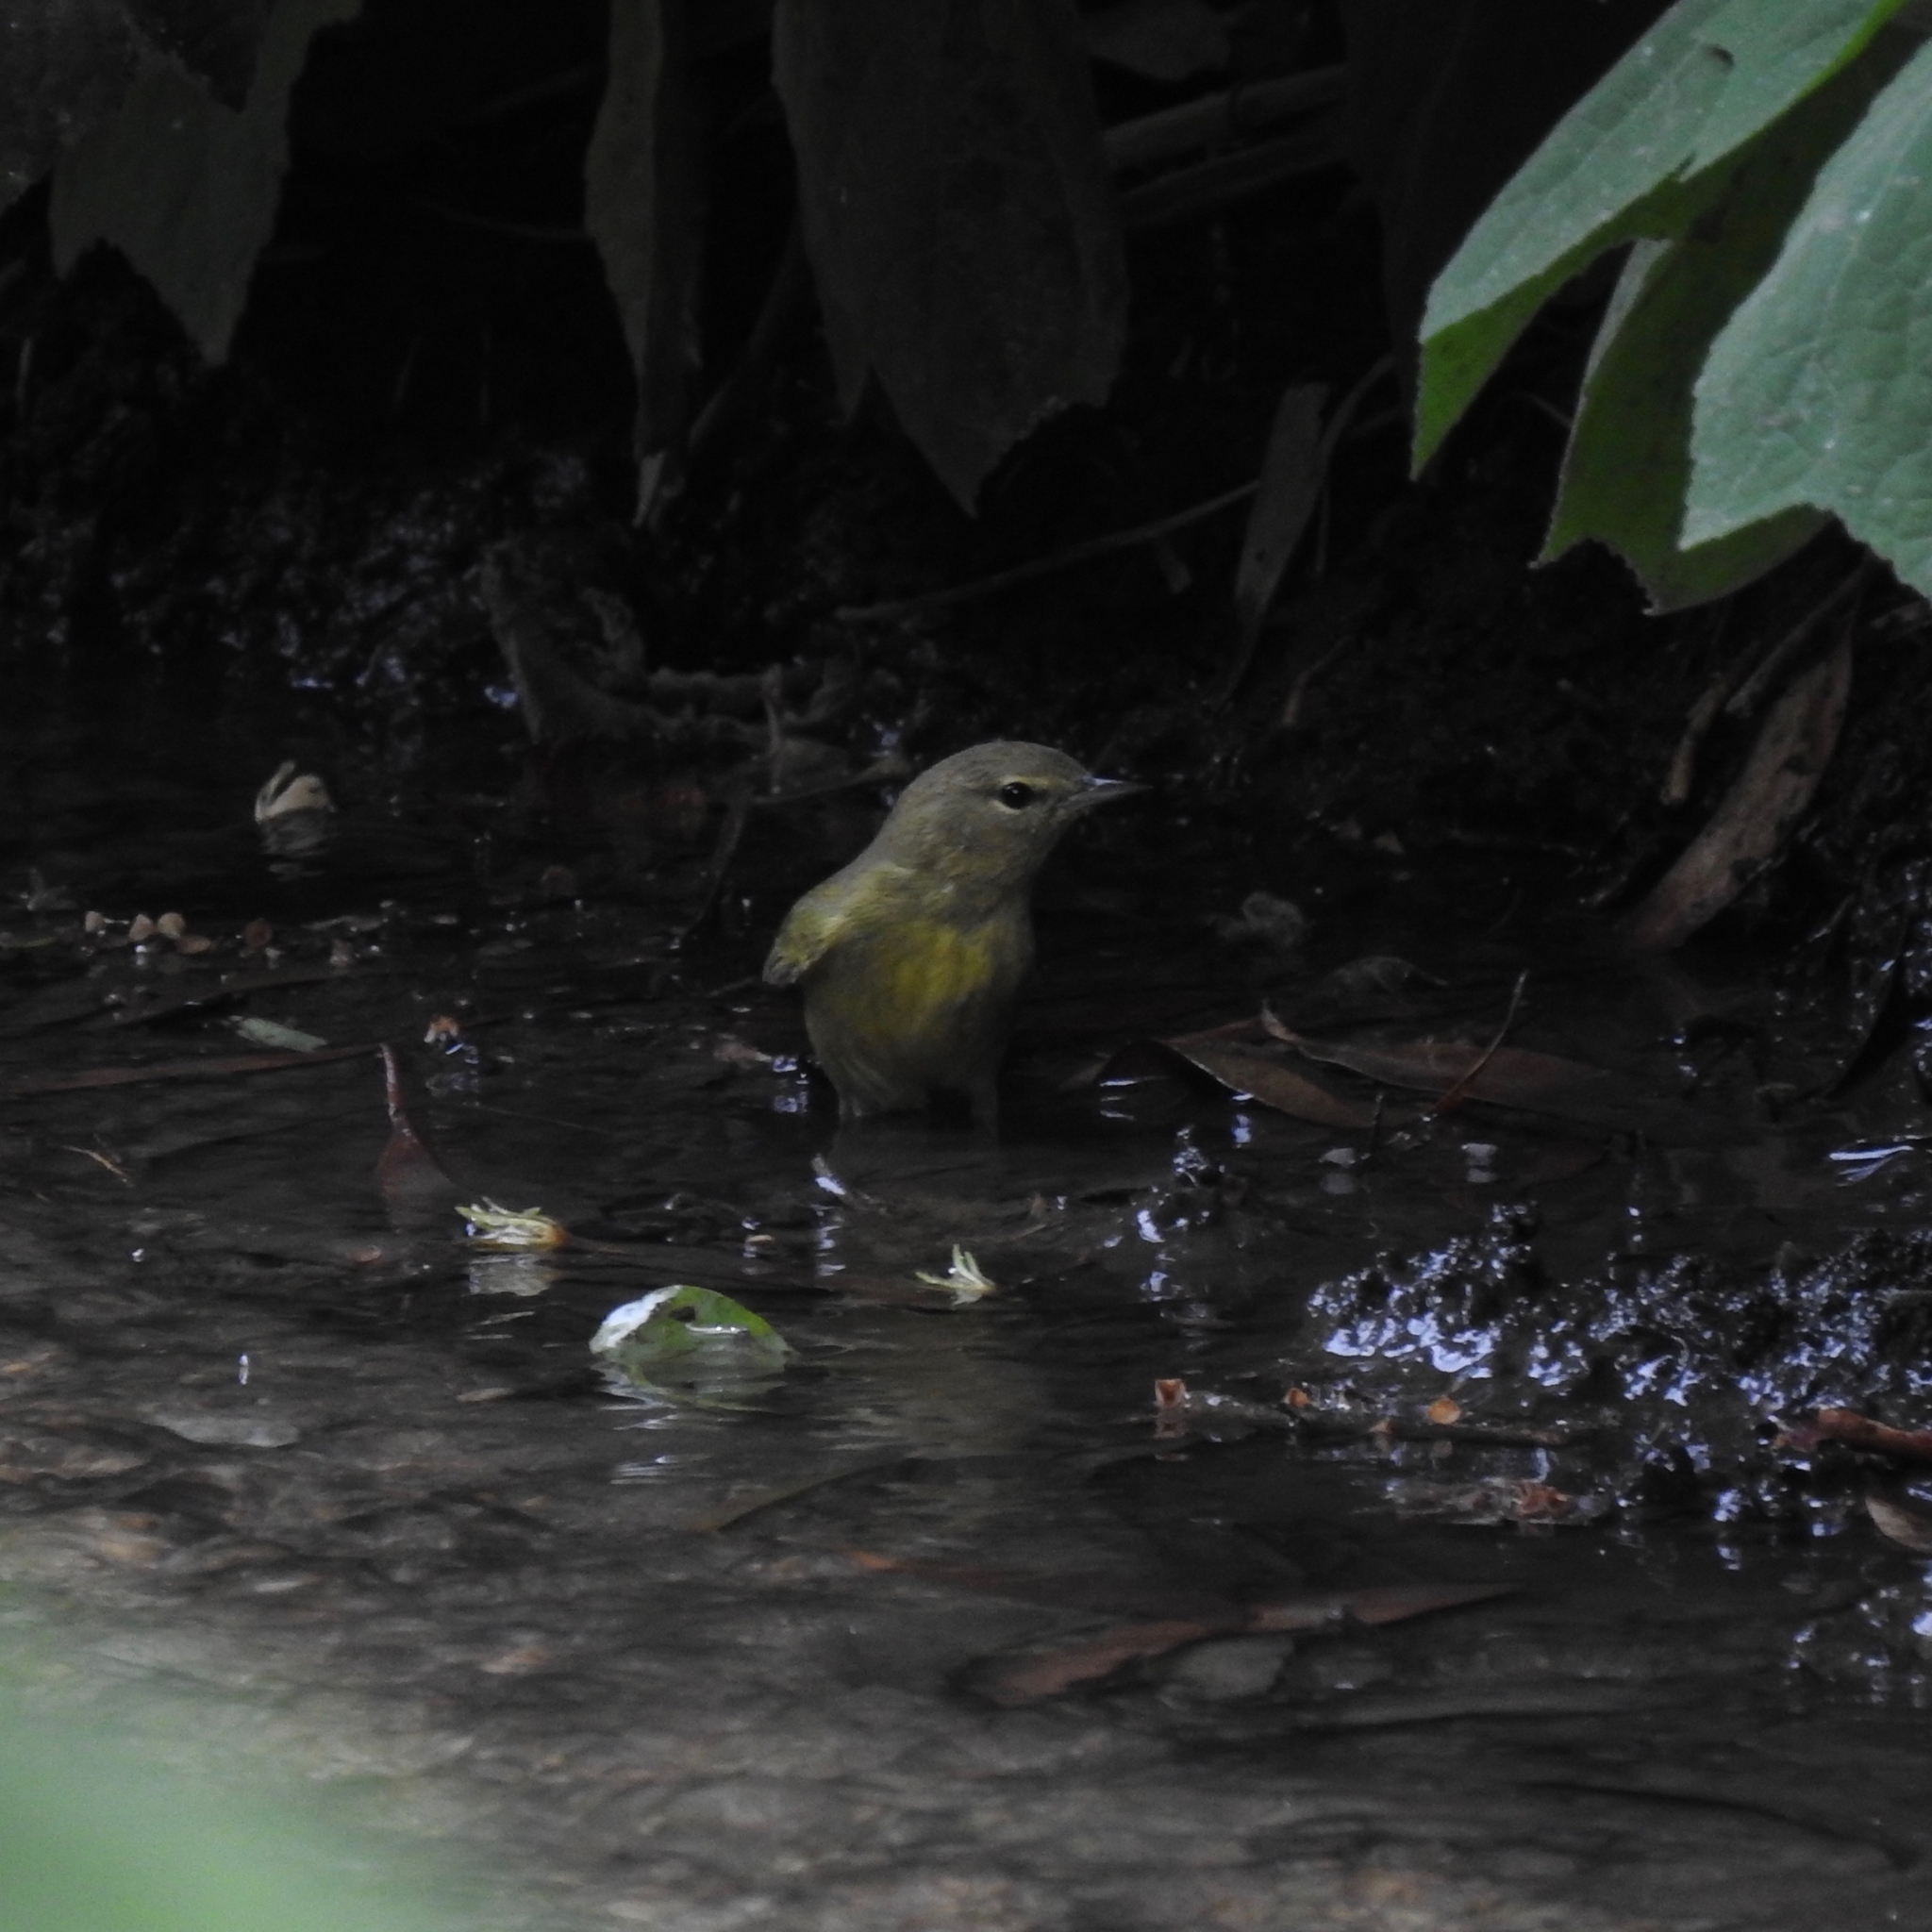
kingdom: Animalia
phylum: Chordata
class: Aves
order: Passeriformes
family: Parulidae
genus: Leiothlypis
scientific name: Leiothlypis celata
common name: Orange-crowned warbler
